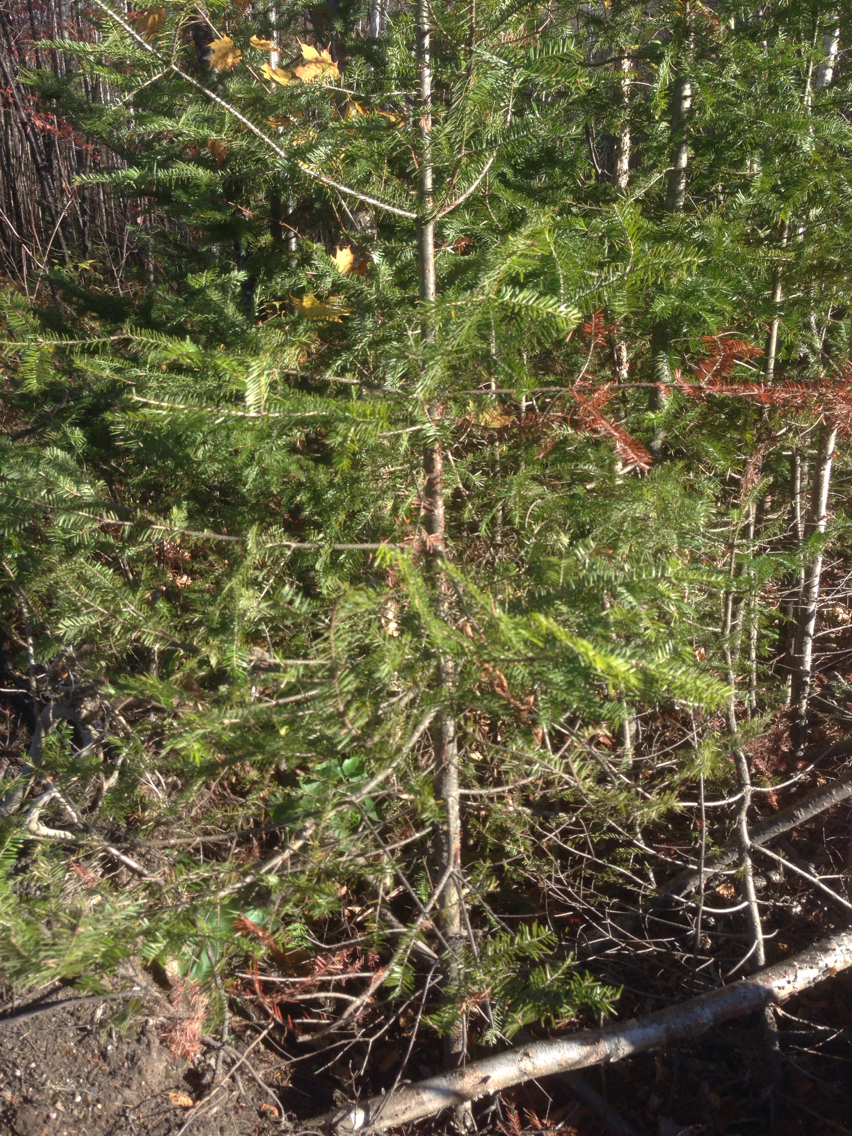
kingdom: Plantae
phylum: Tracheophyta
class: Pinopsida
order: Pinales
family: Pinaceae
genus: Abies
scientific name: Abies balsamea
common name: Balsam fir
